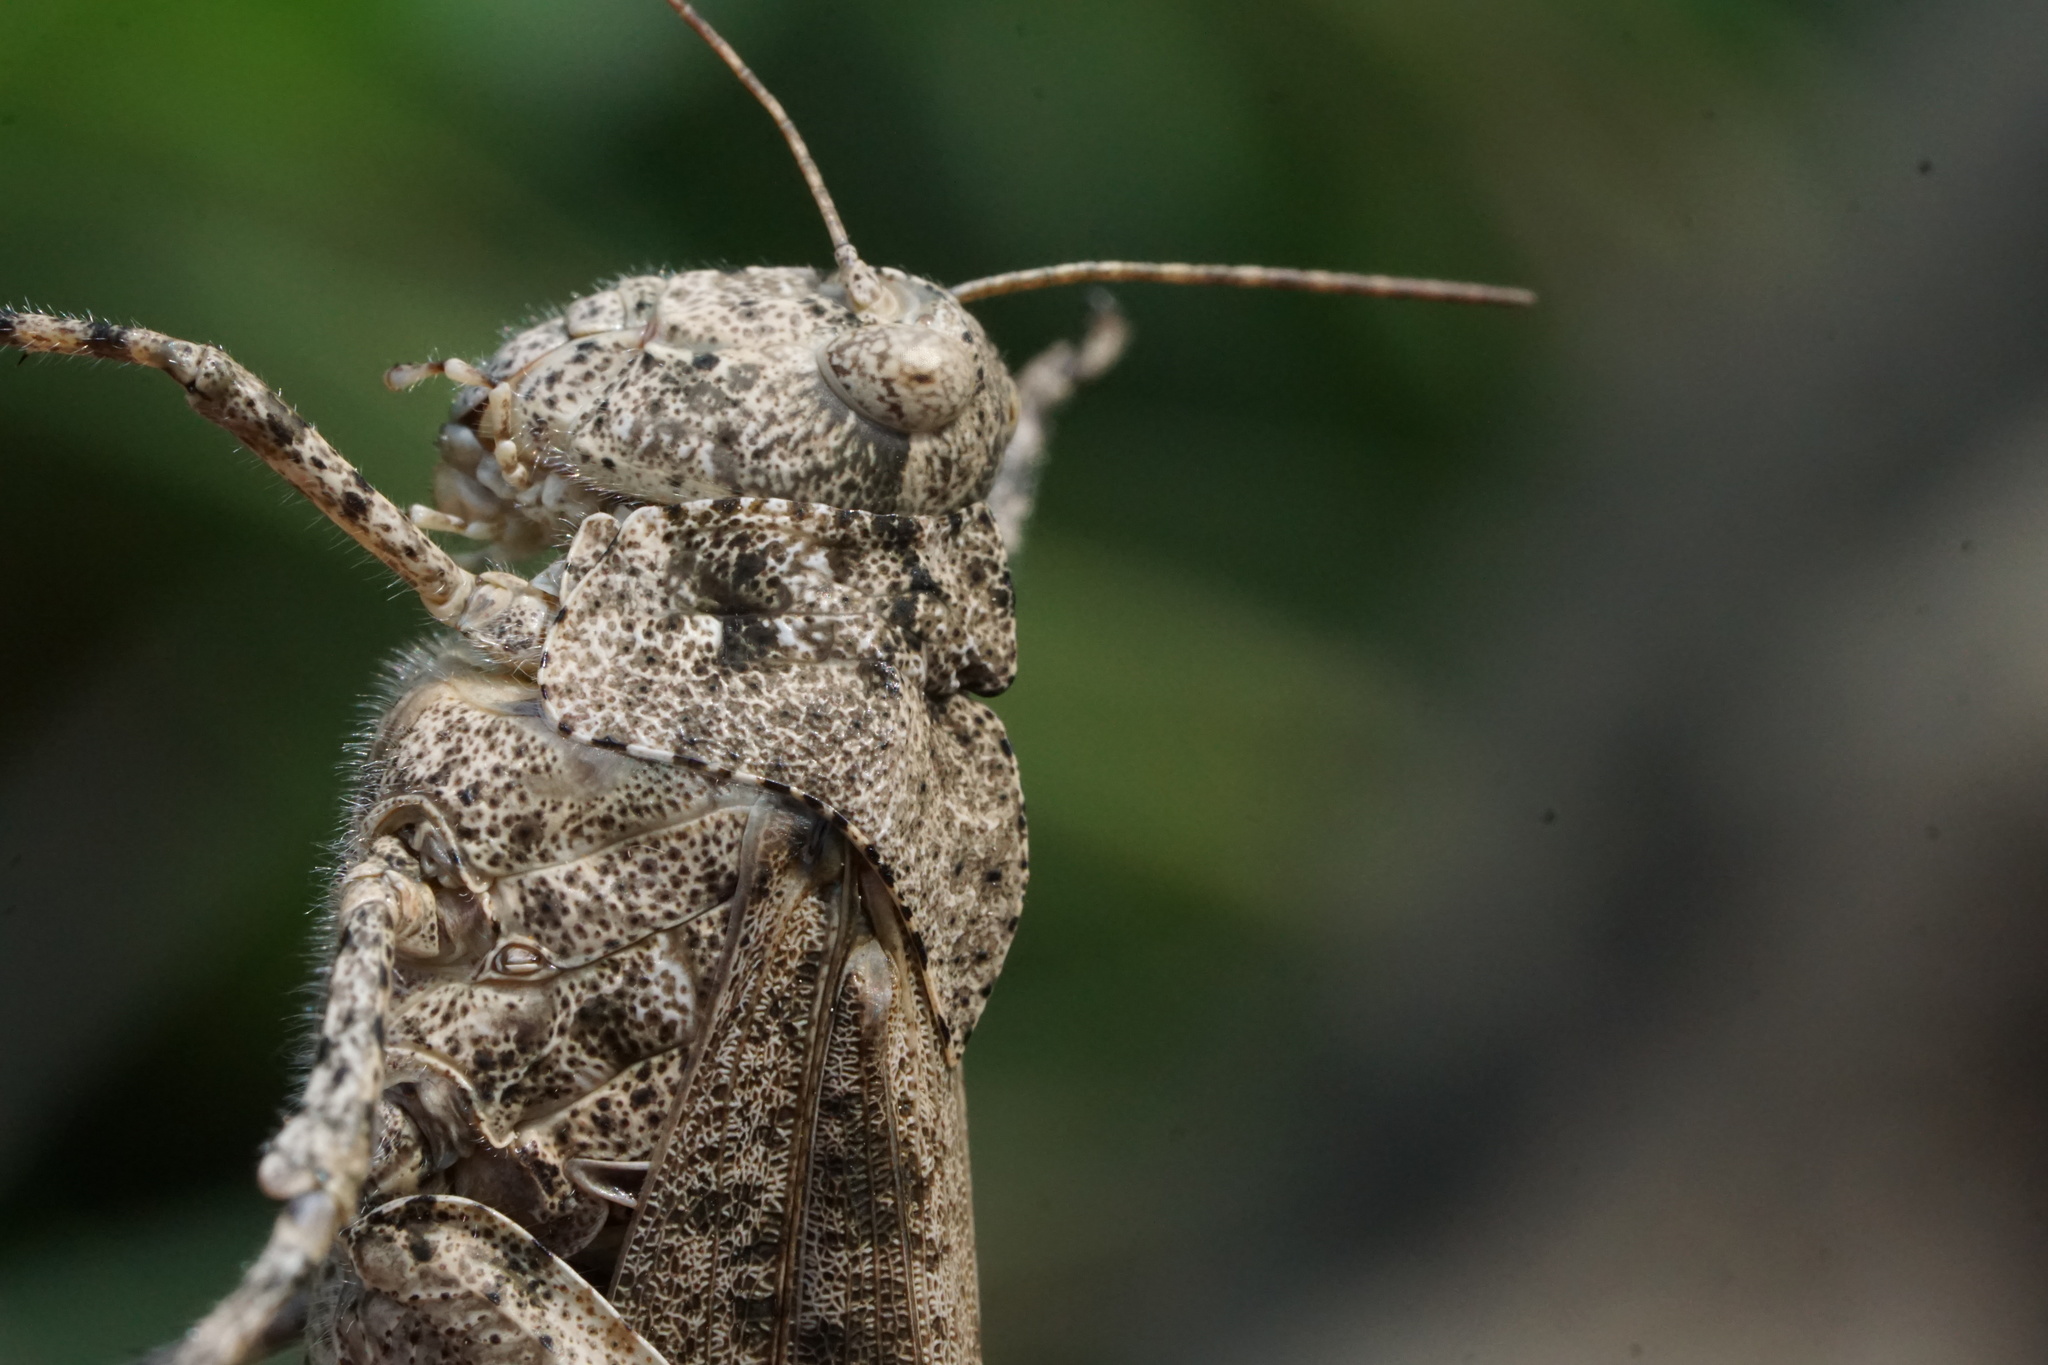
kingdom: Animalia
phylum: Arthropoda
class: Insecta
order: Orthoptera
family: Acrididae
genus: Dissosteira
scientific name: Dissosteira carolina
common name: Carolina grasshopper
